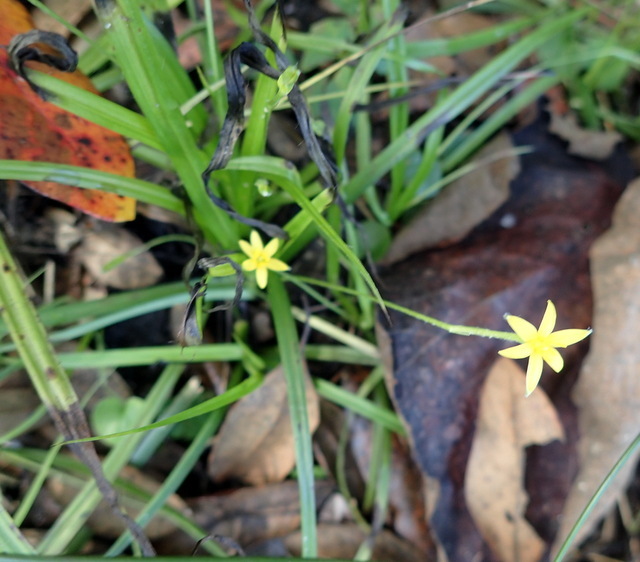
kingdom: Plantae
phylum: Tracheophyta
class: Liliopsida
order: Asparagales
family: Hypoxidaceae
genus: Hypoxis
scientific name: Hypoxis curtissii
